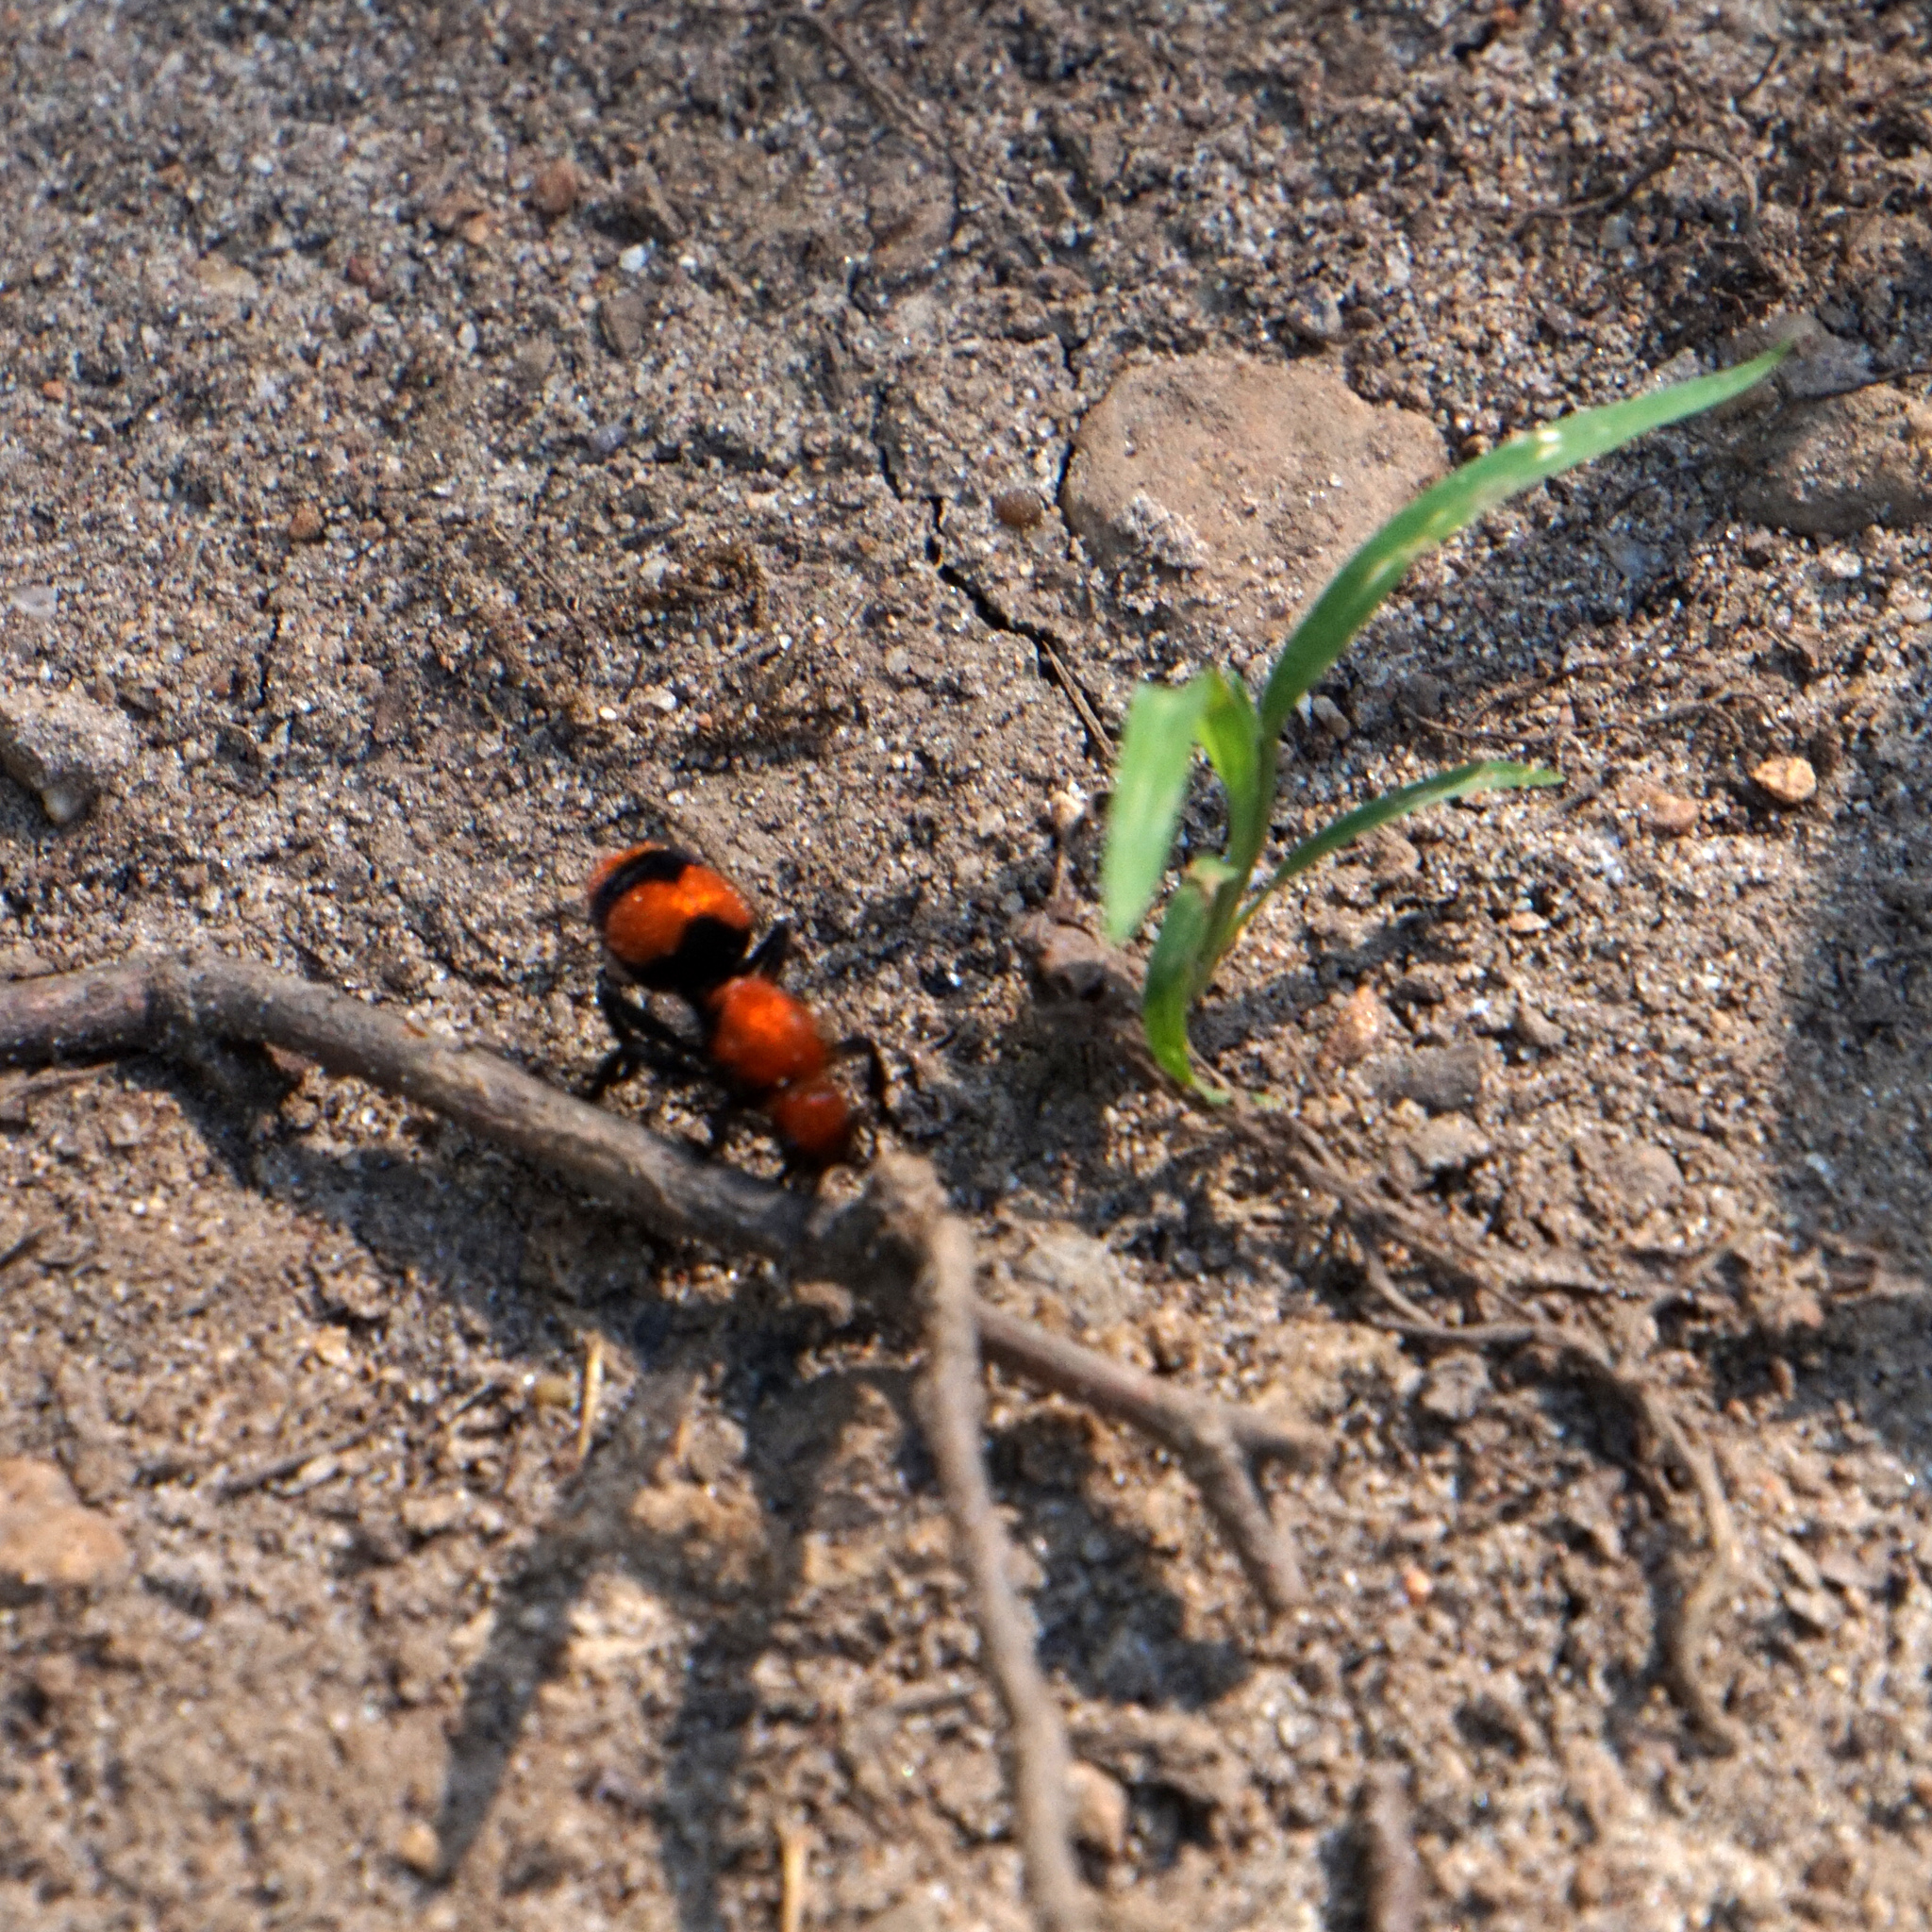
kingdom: Animalia
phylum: Arthropoda
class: Insecta
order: Hymenoptera
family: Mutillidae
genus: Dasymutilla
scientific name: Dasymutilla occidentalis
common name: Common eastern velvet ant
